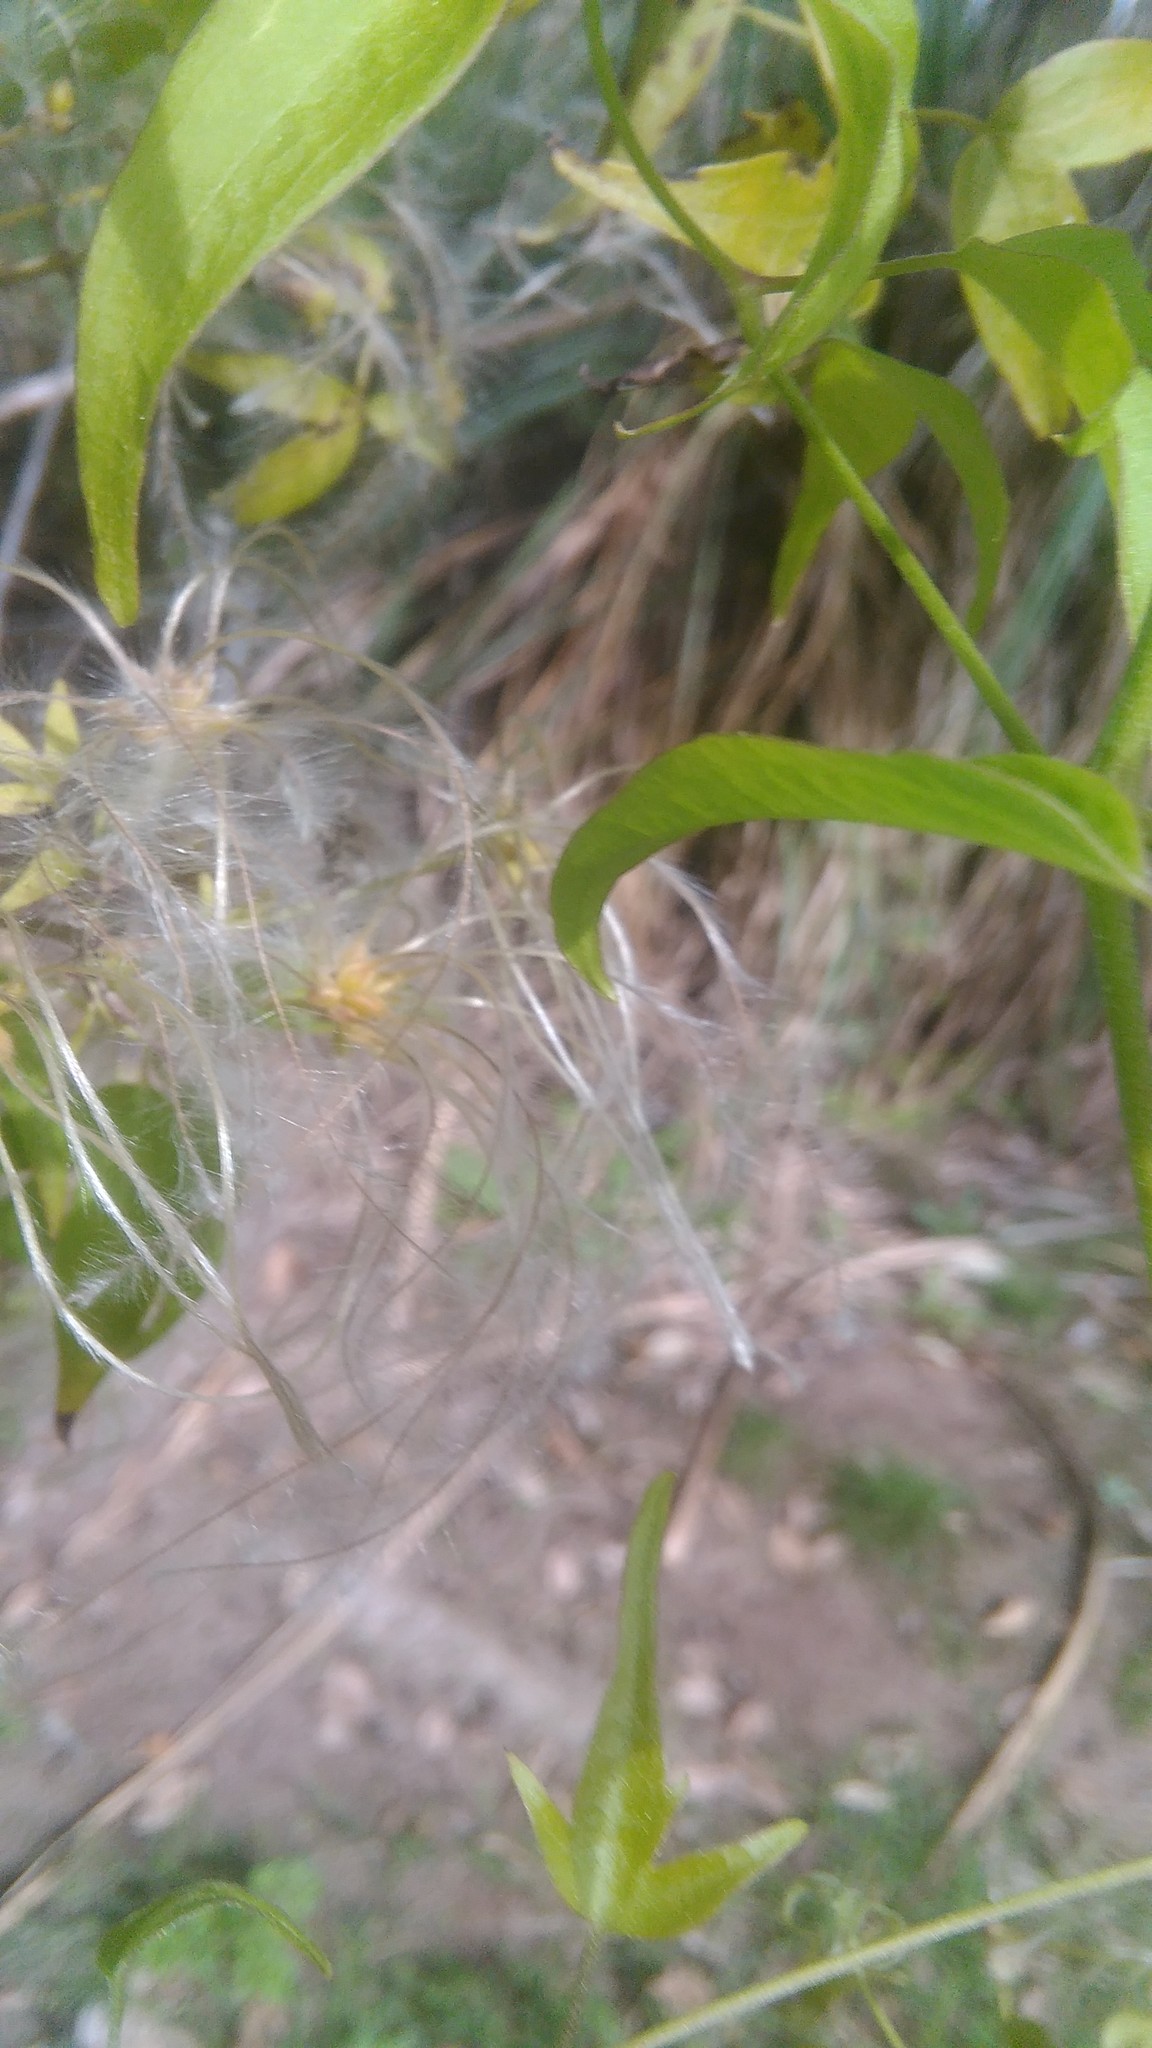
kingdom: Plantae
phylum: Tracheophyta
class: Magnoliopsida
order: Ranunculales
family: Ranunculaceae
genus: Clematis
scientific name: Clematis montevidensis
